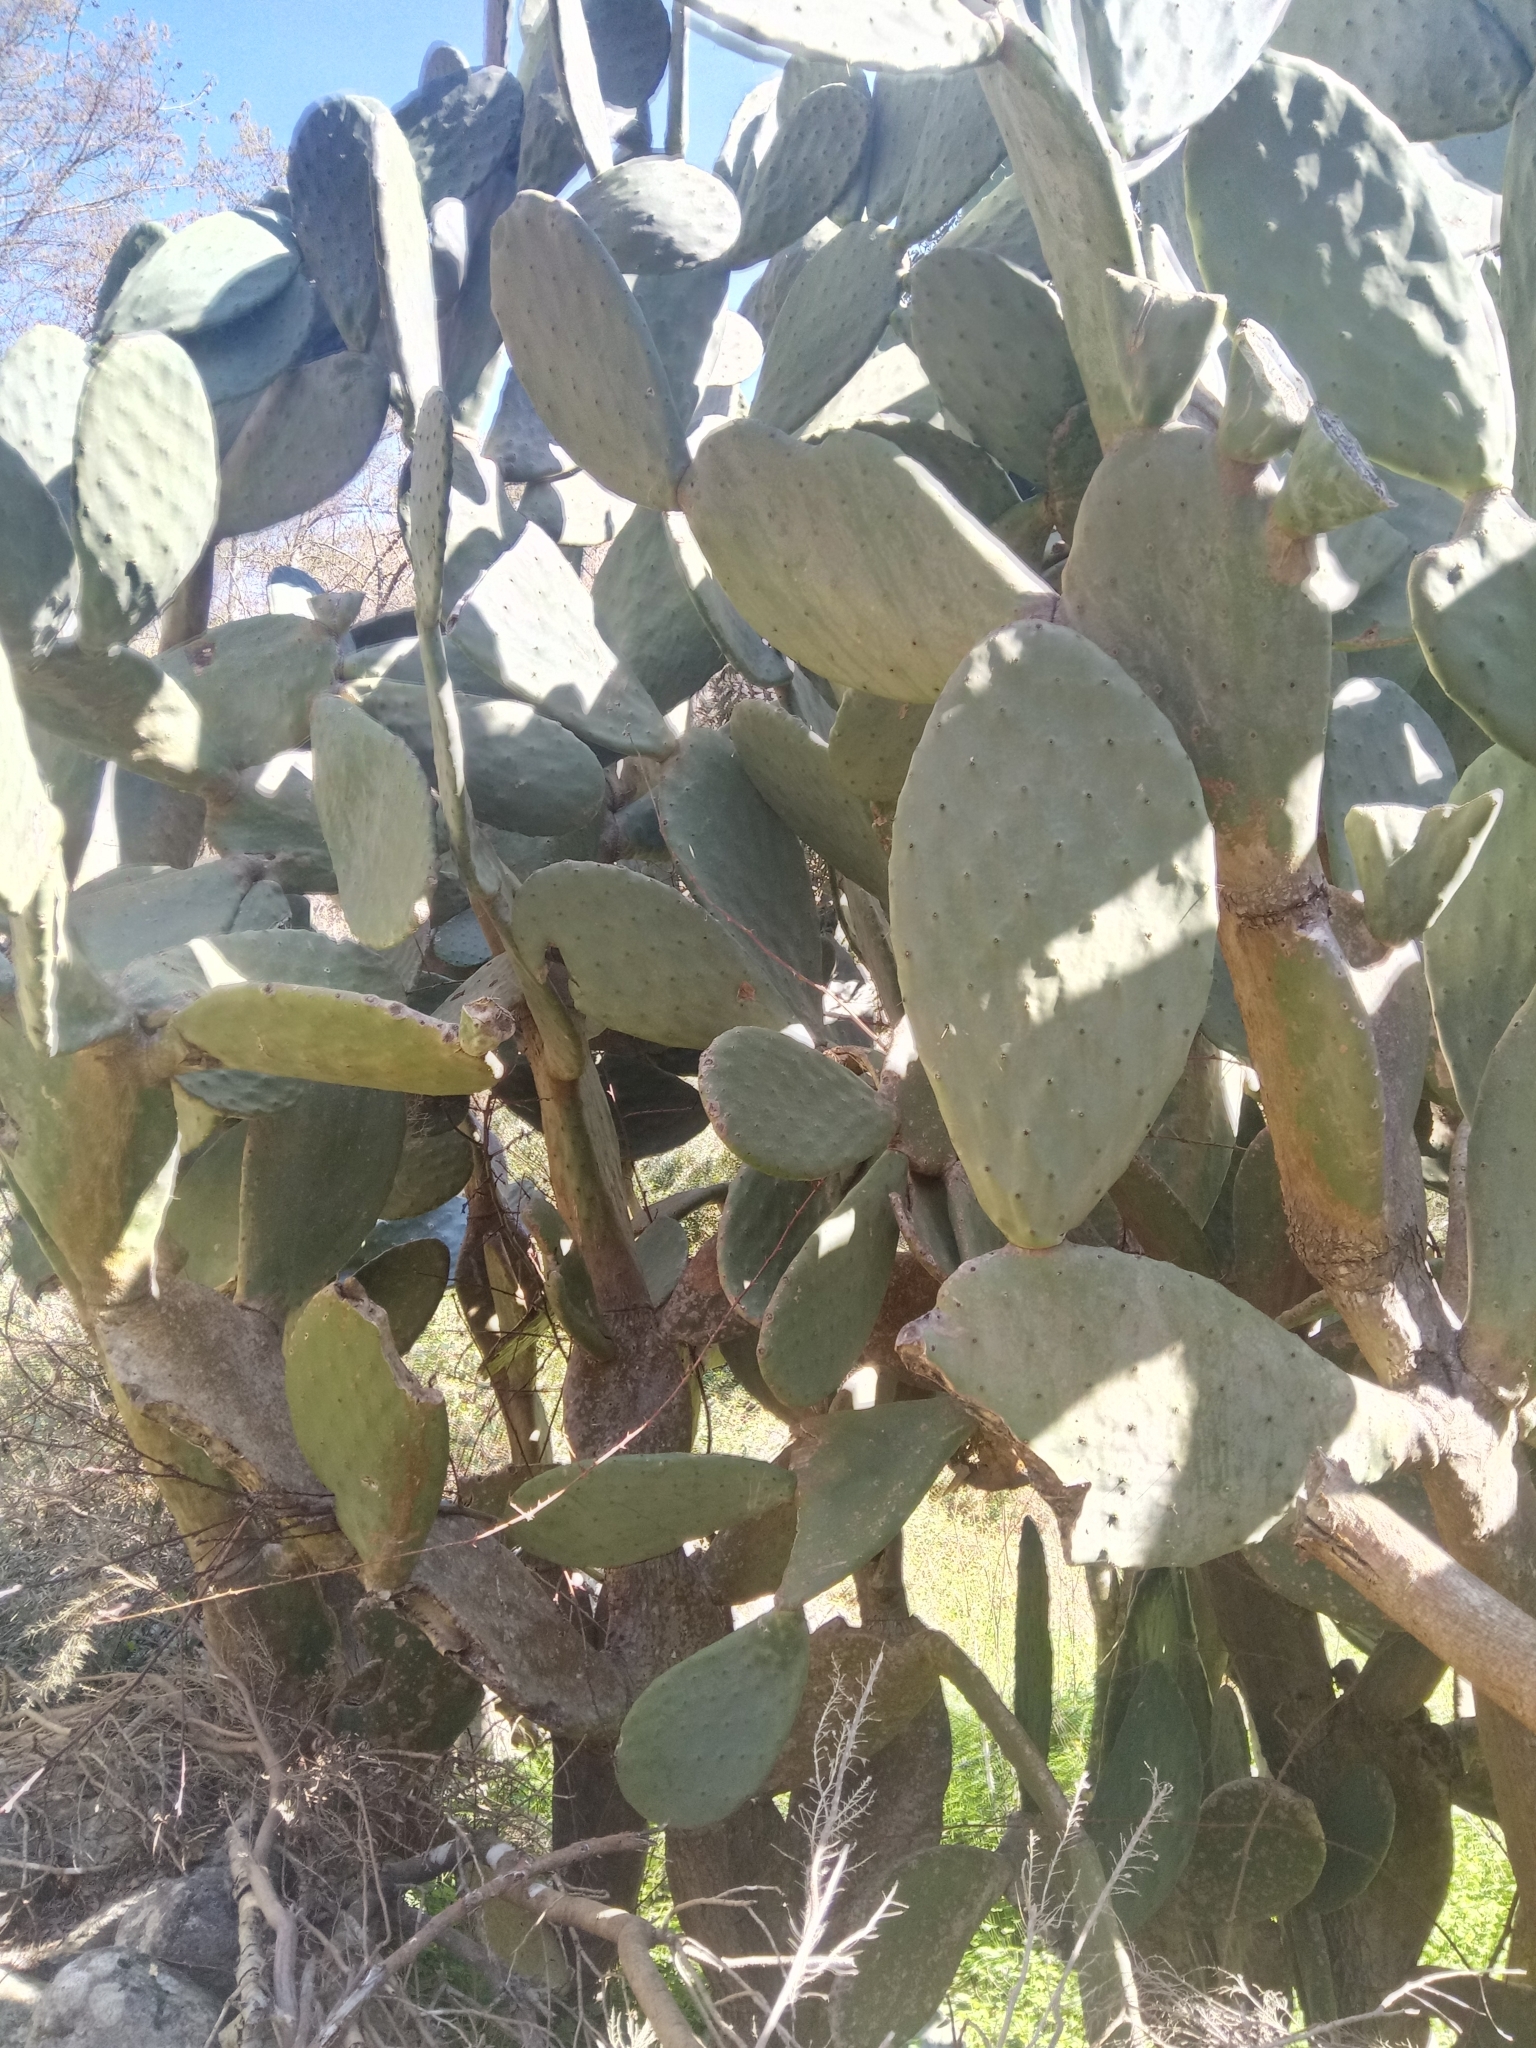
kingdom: Plantae
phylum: Tracheophyta
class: Magnoliopsida
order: Caryophyllales
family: Cactaceae
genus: Opuntia
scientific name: Opuntia ficus-indica
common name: Barbary fig
